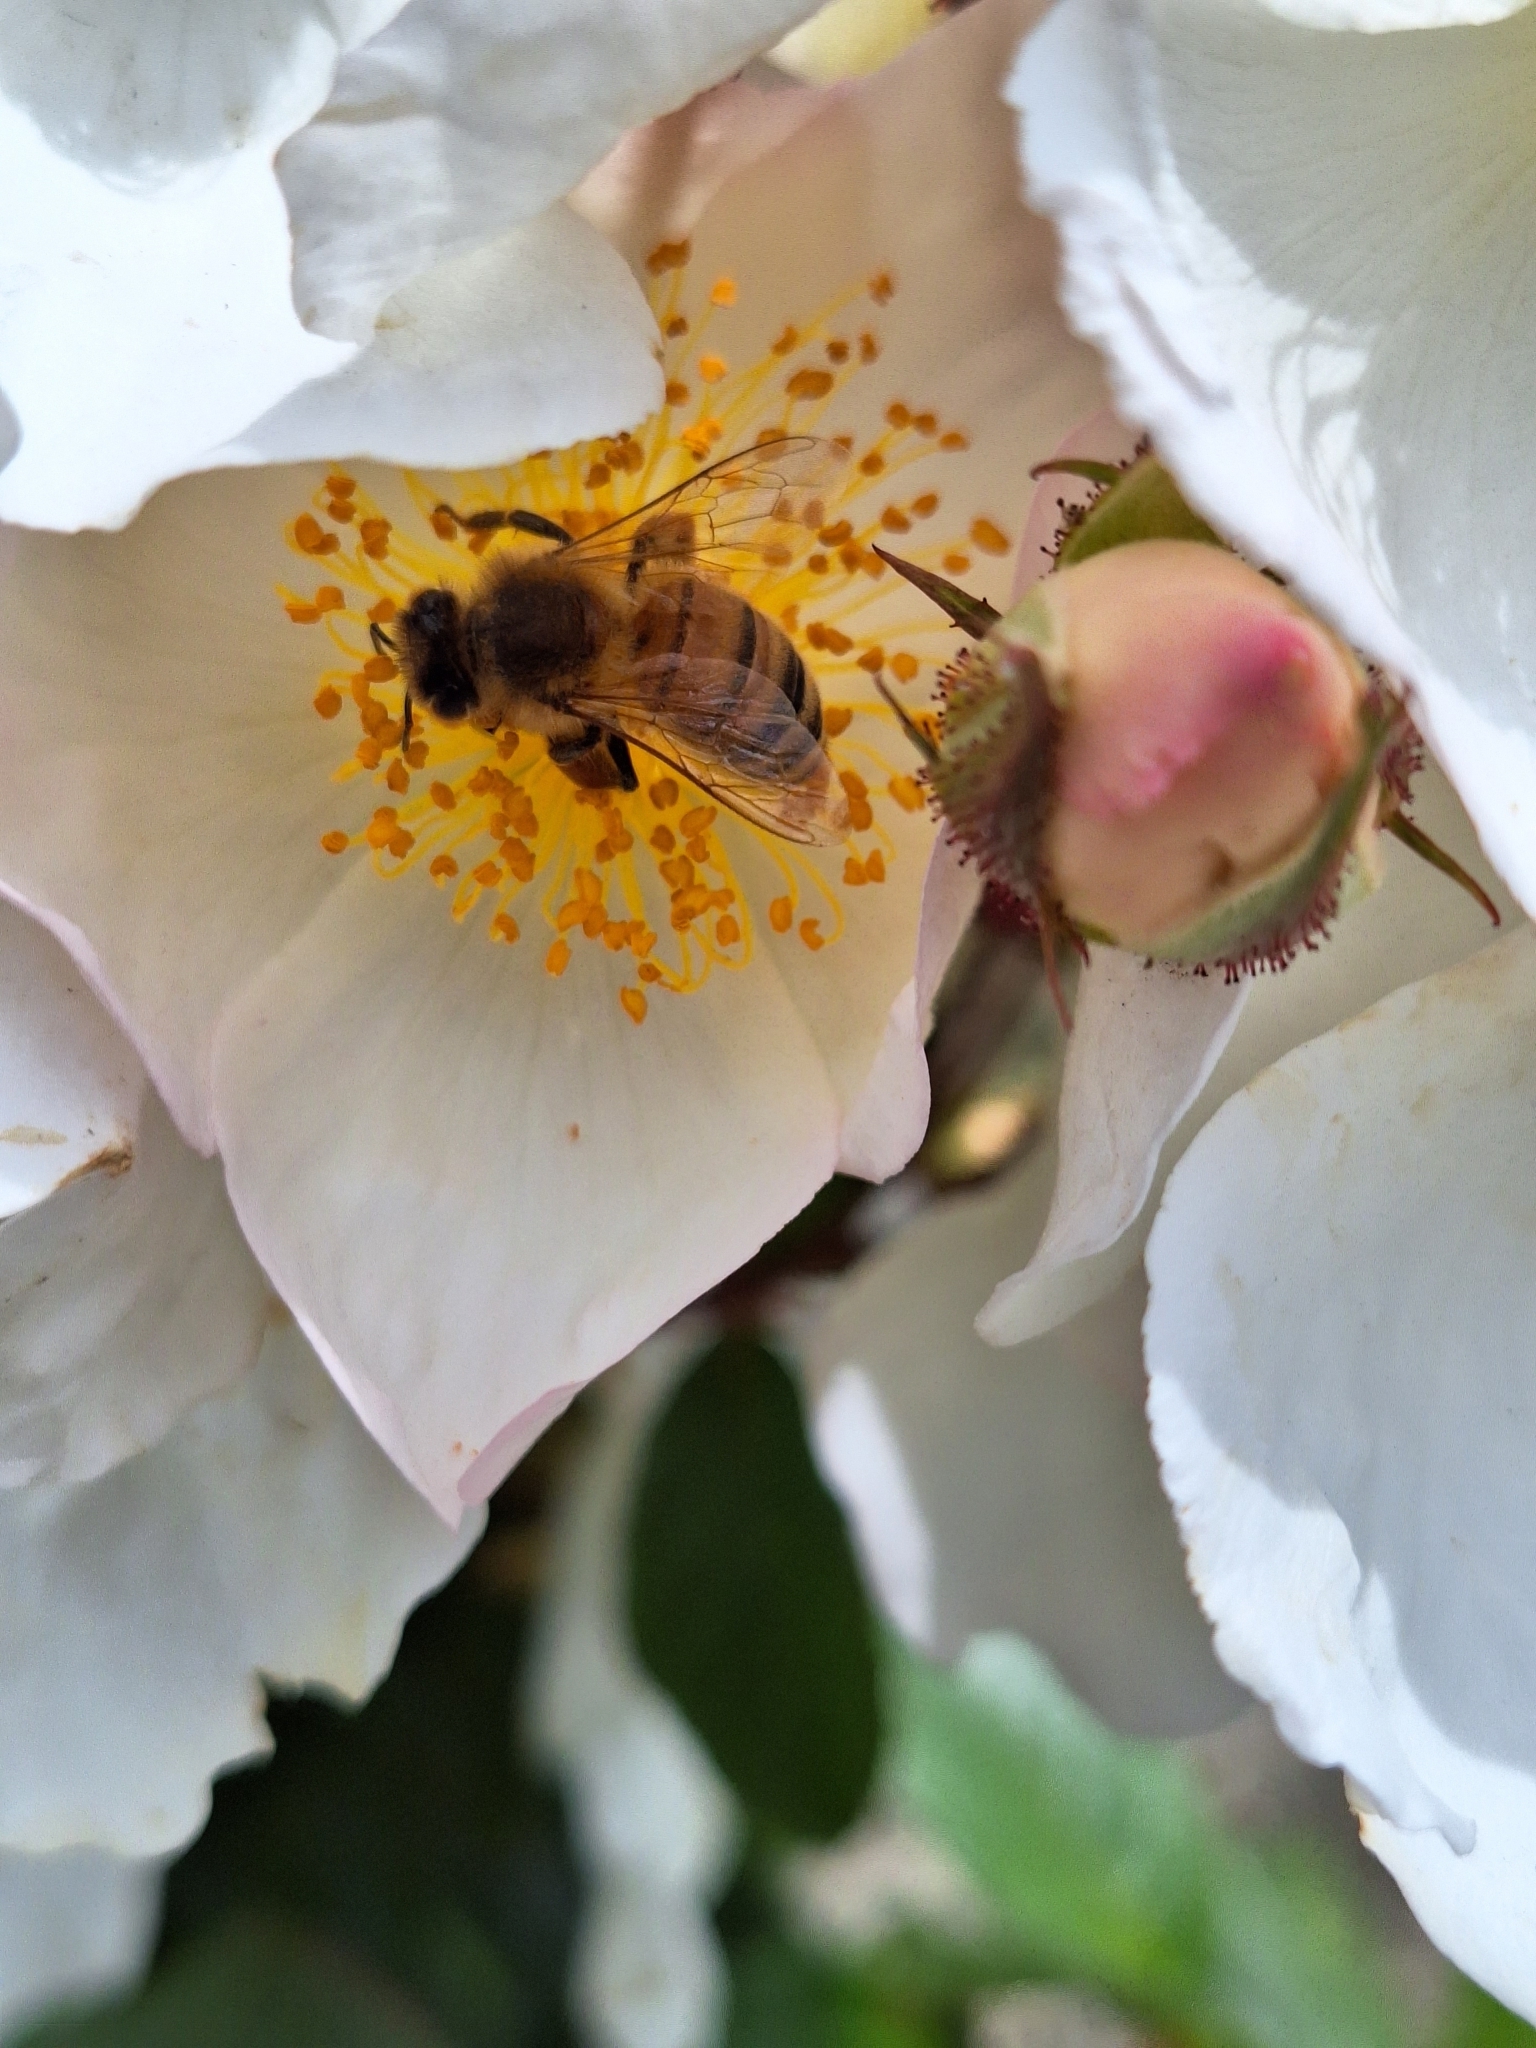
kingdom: Animalia
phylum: Arthropoda
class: Insecta
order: Hymenoptera
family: Apidae
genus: Apis
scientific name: Apis mellifera
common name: Honey bee
